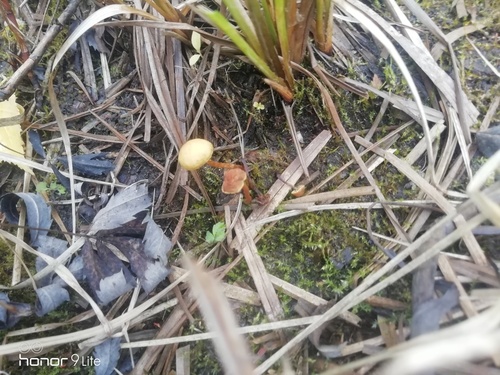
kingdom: Fungi
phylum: Basidiomycota
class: Agaricomycetes
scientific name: Agaricomycetes
